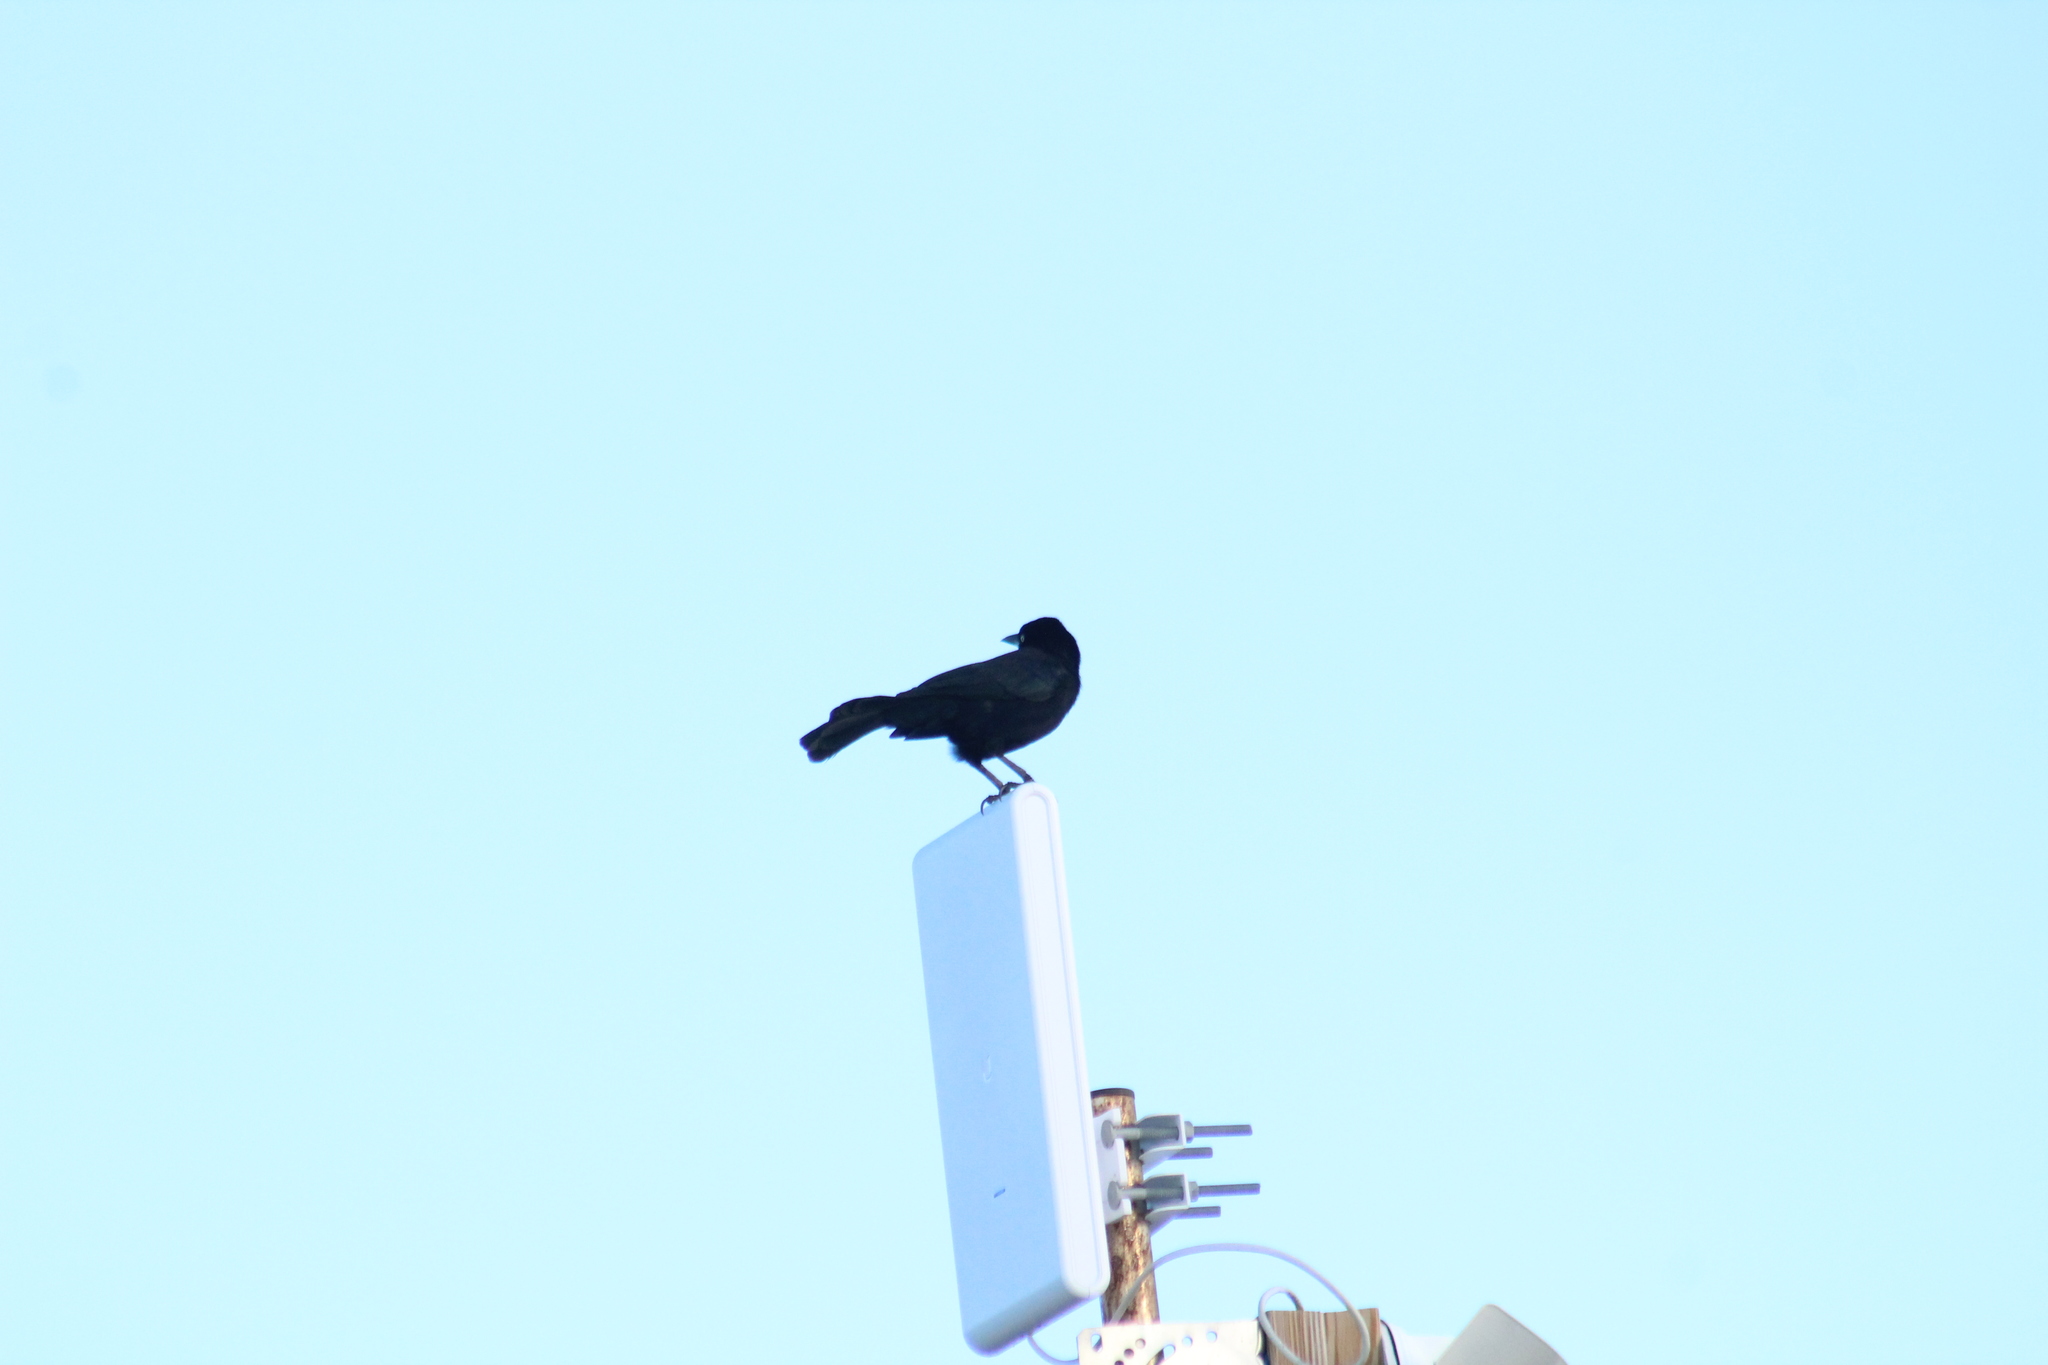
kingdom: Animalia
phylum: Chordata
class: Aves
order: Passeriformes
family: Icteridae
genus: Quiscalus
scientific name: Quiscalus lugubris
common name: Carib grackle
